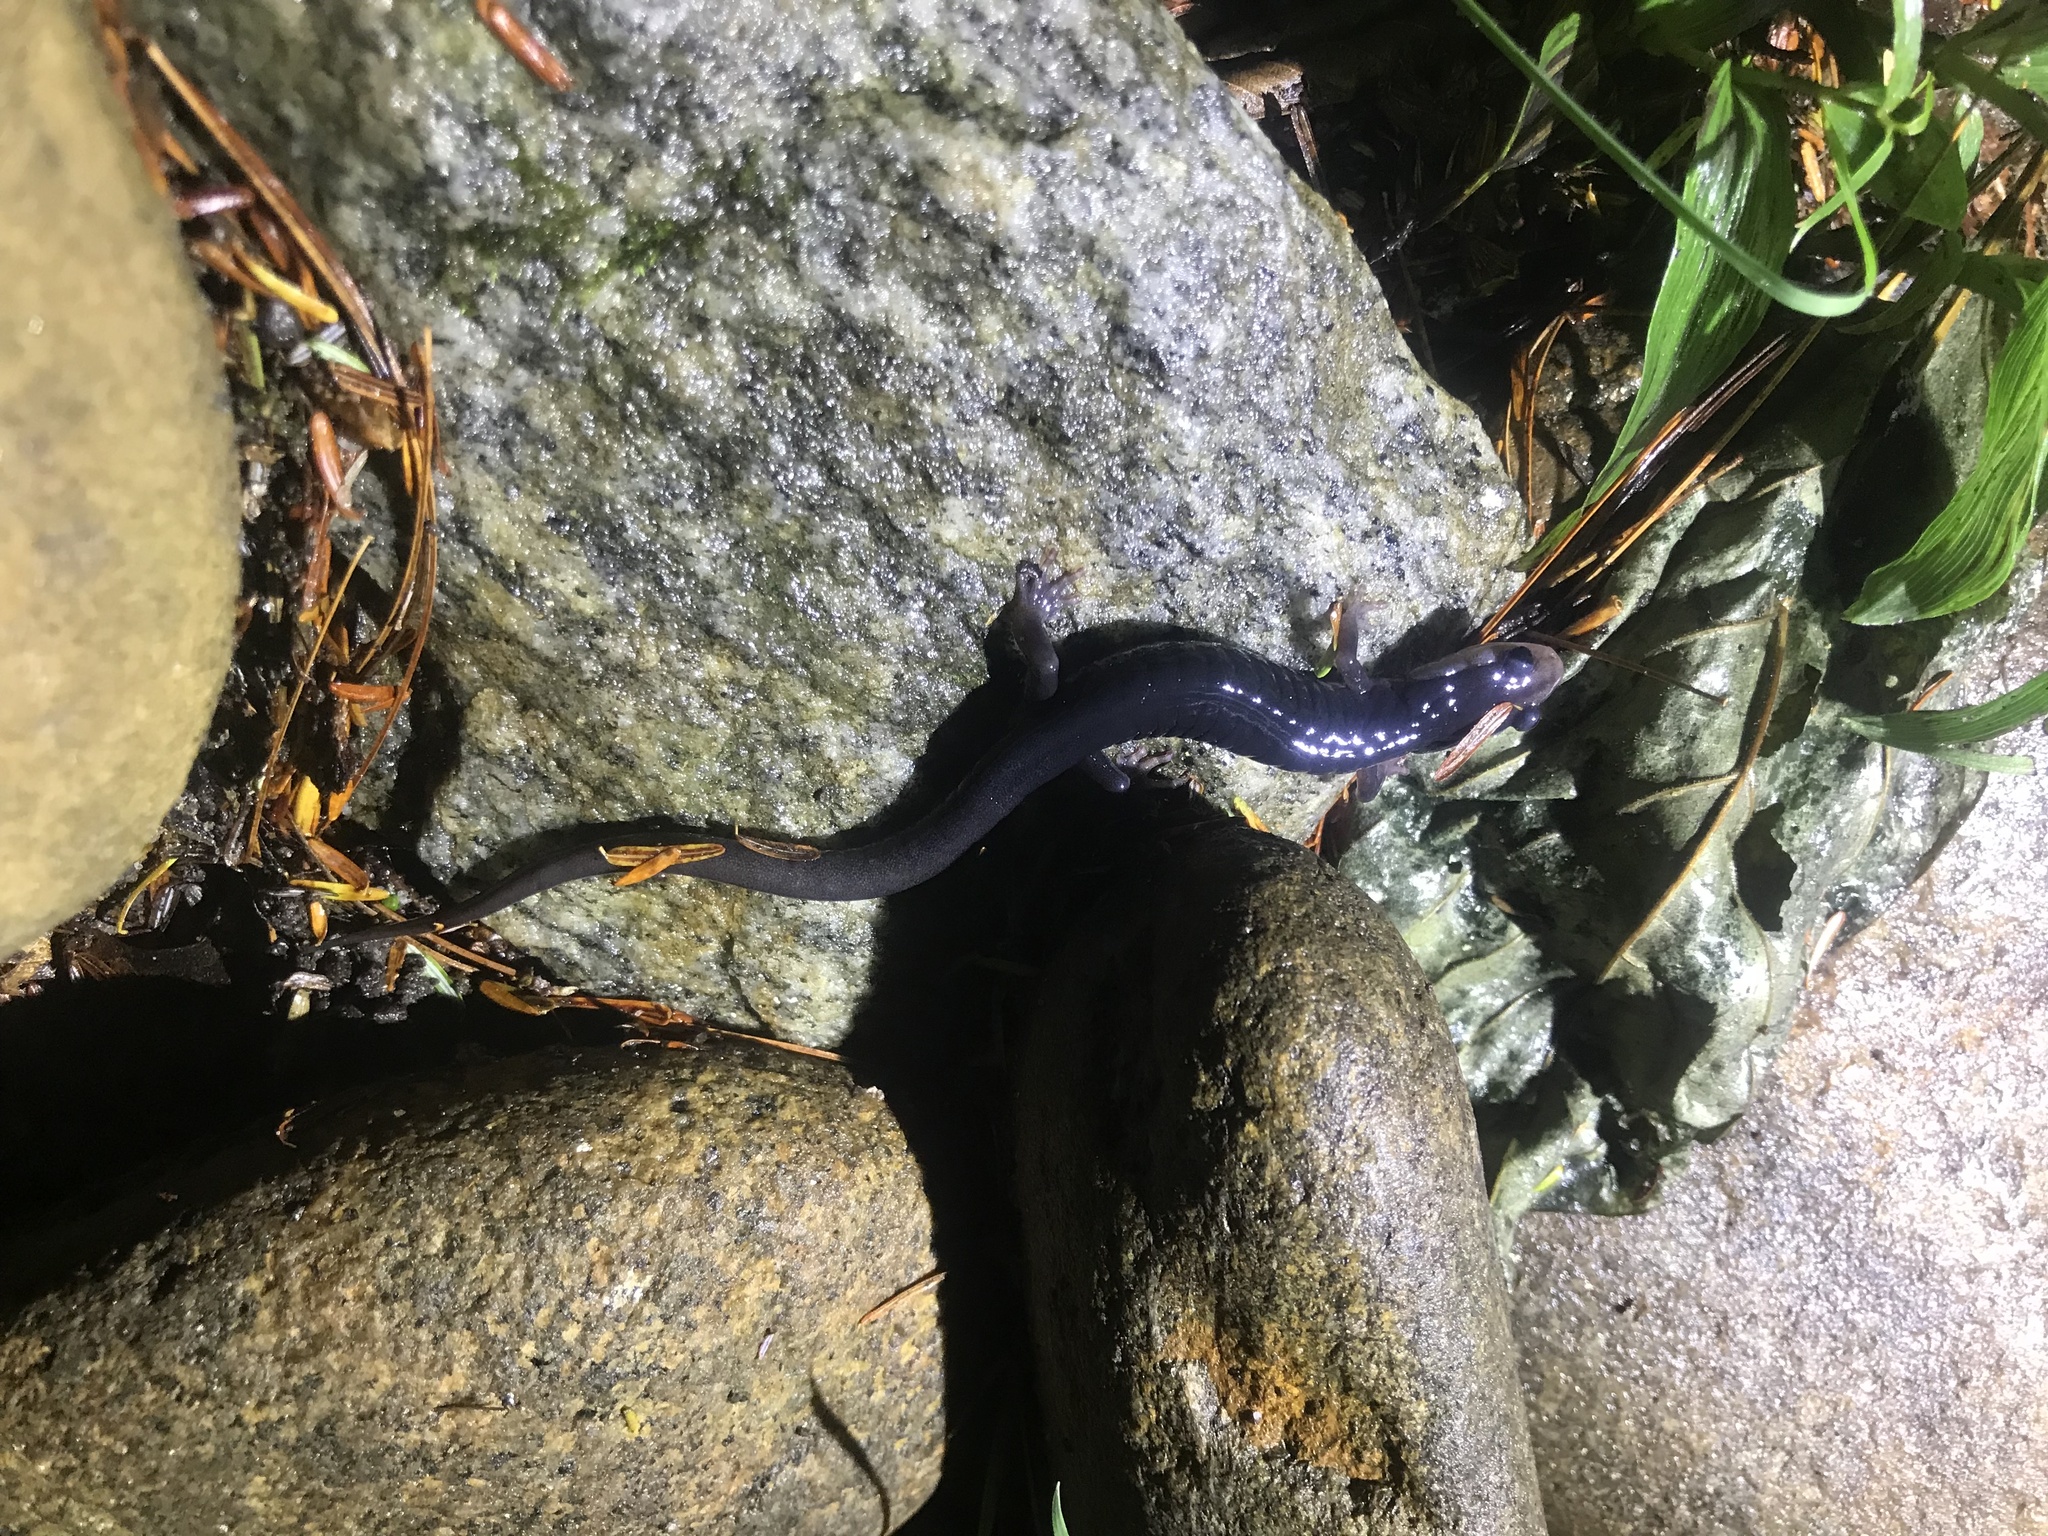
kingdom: Animalia
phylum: Chordata
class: Amphibia
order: Caudata
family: Plethodontidae
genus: Plethodon
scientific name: Plethodon metcalfi
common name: Southern gray-cheeked salamander
